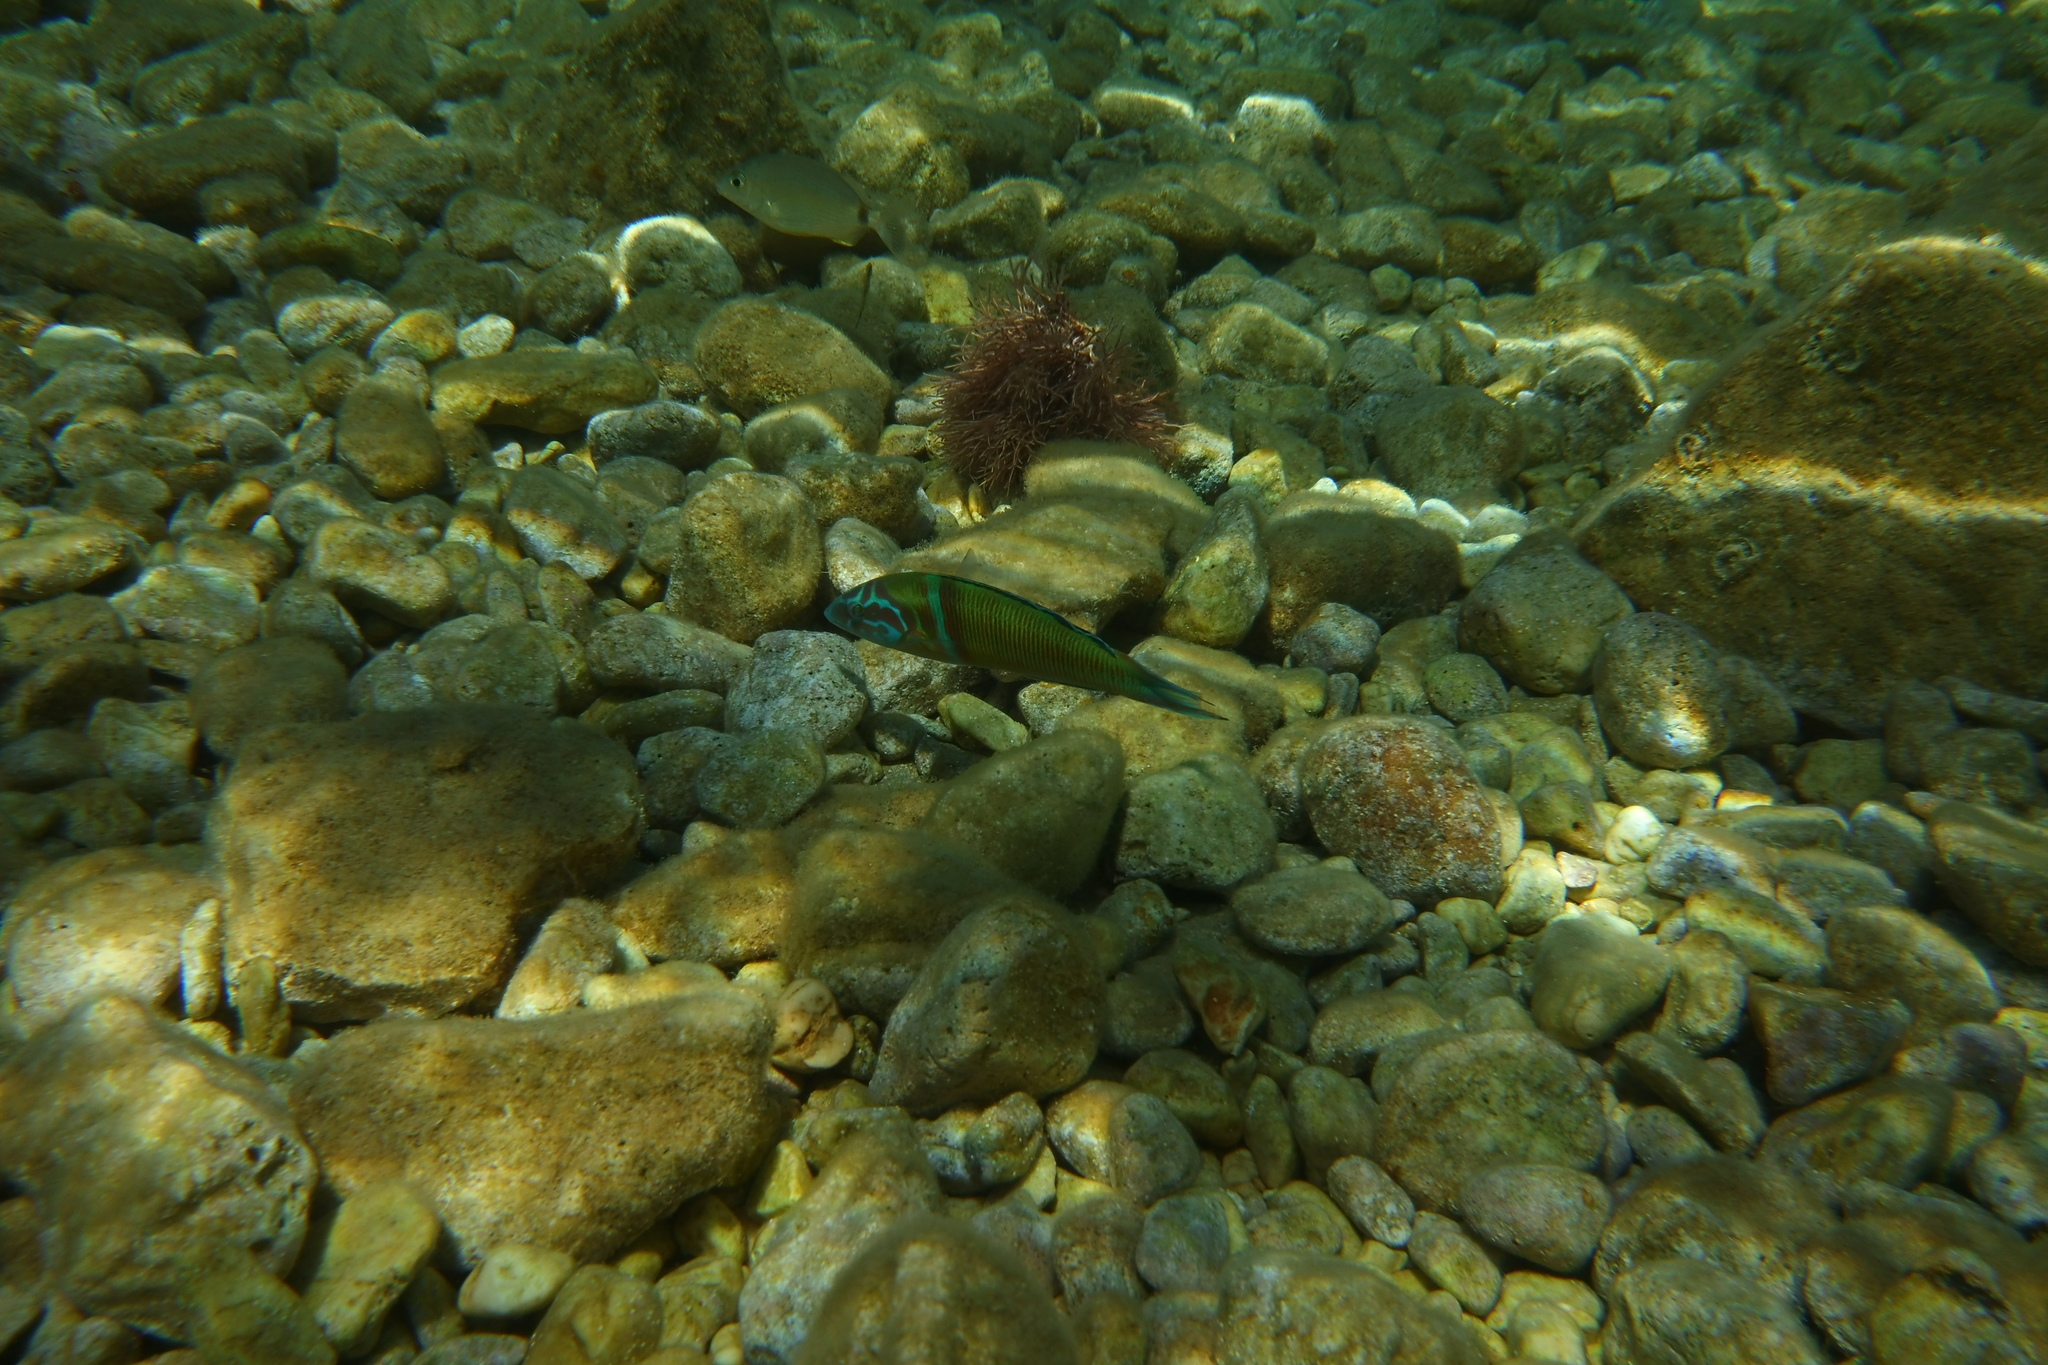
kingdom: Animalia
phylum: Chordata
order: Perciformes
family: Labridae
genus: Thalassoma
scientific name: Thalassoma pavo
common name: Ornate wrasse
